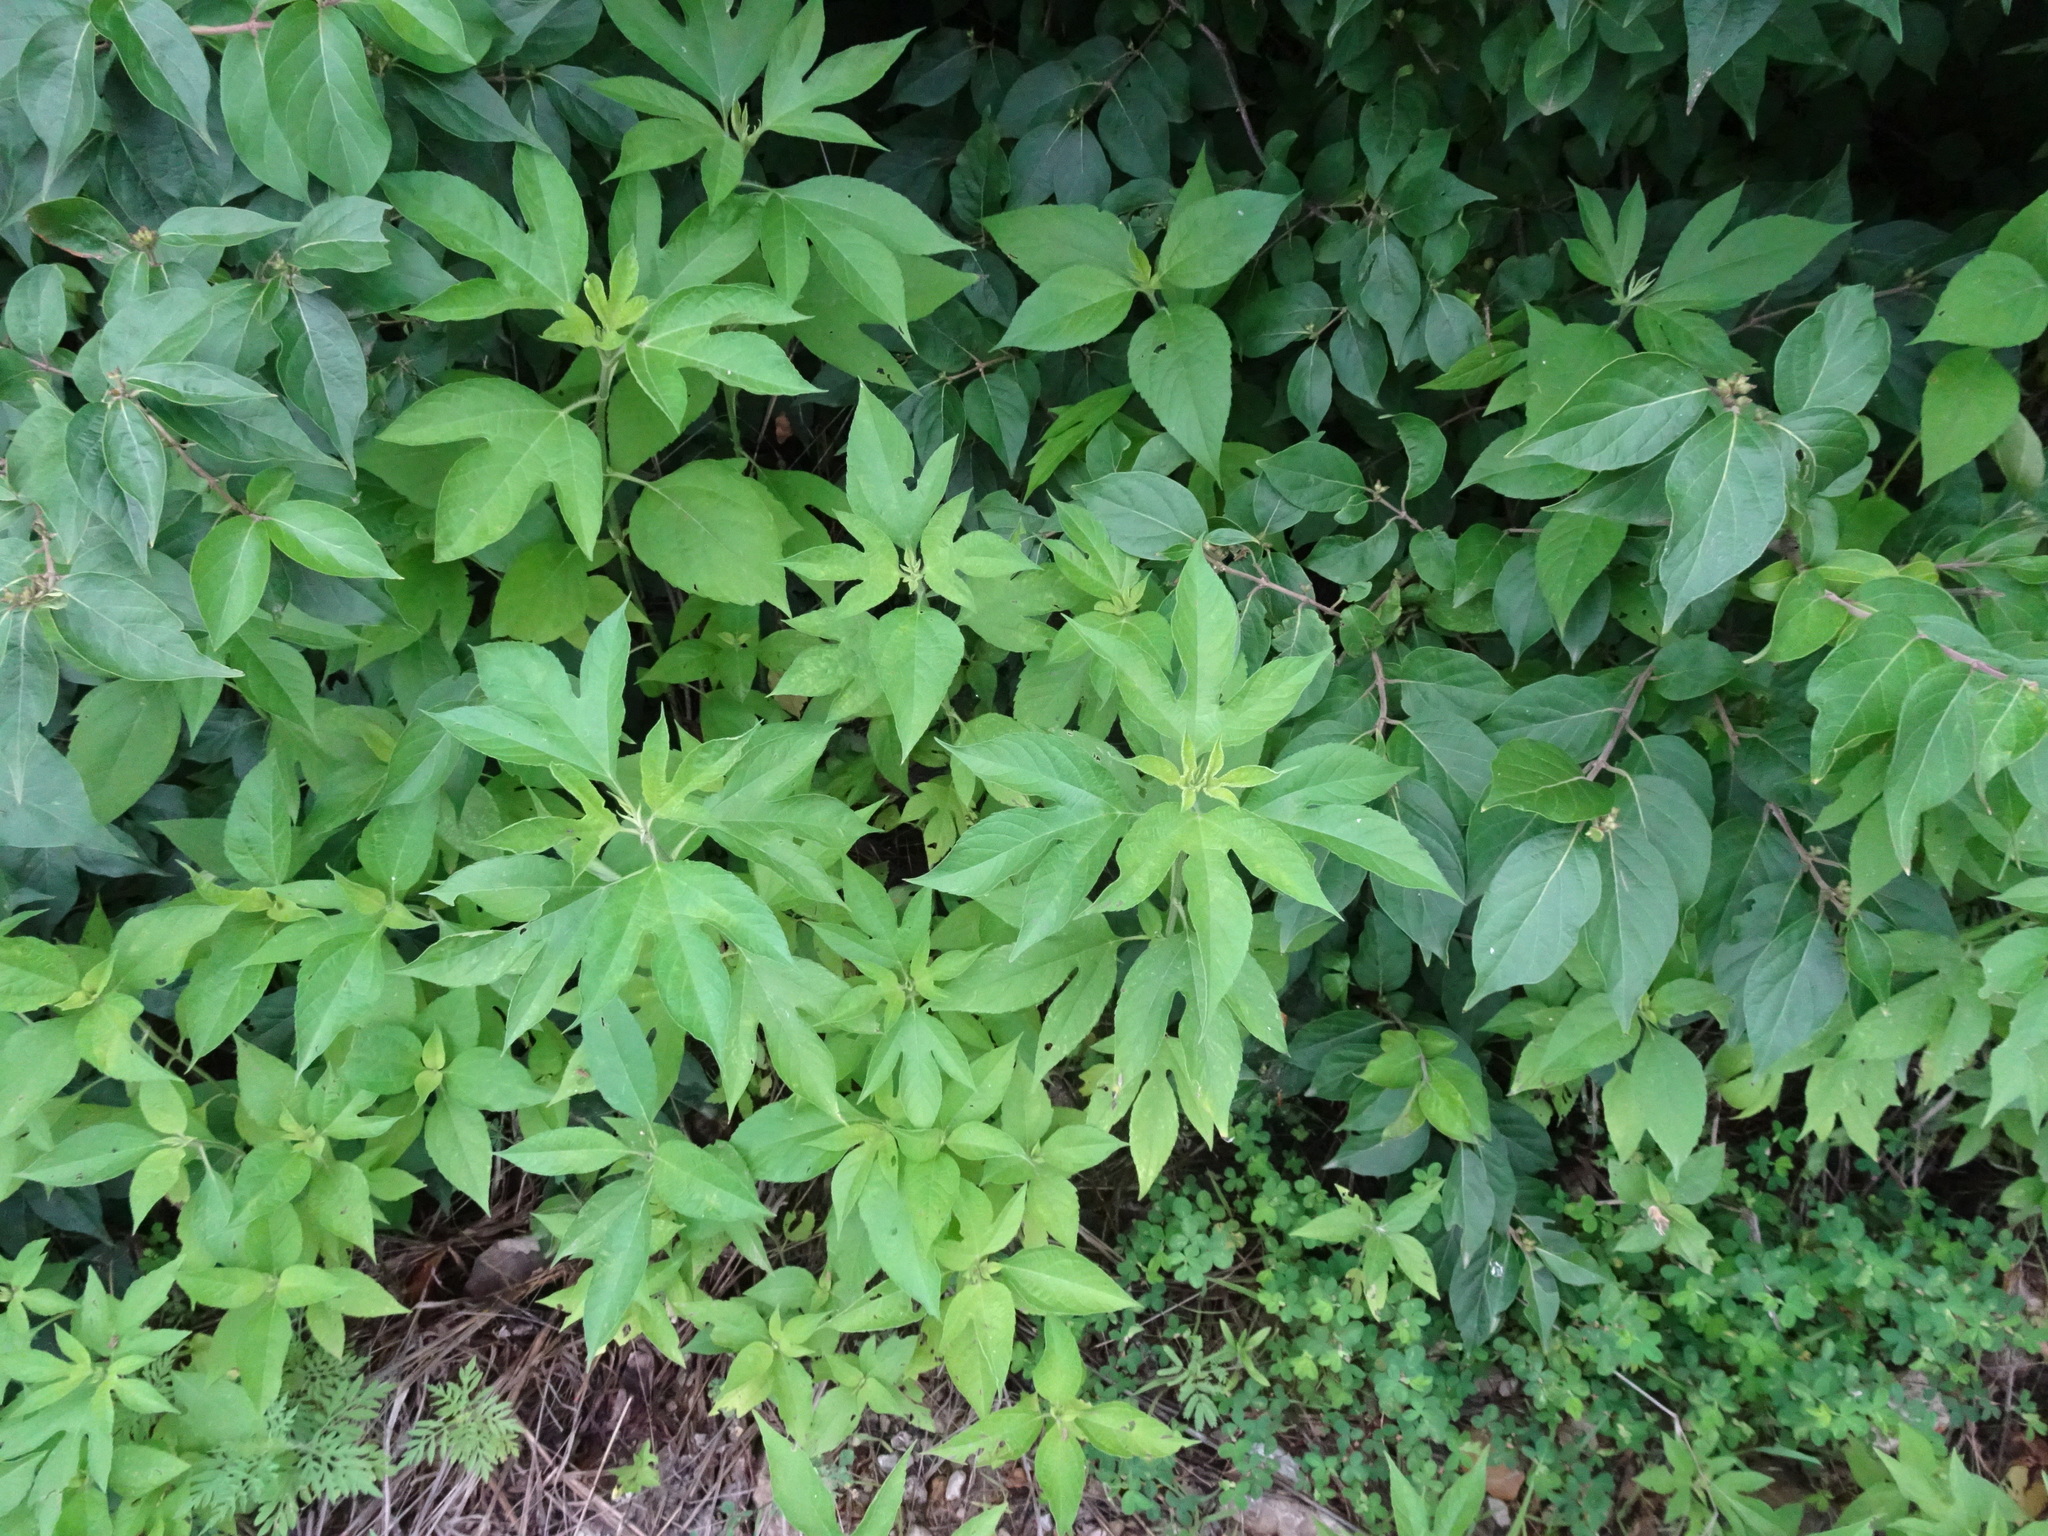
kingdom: Plantae
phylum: Tracheophyta
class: Magnoliopsida
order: Asterales
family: Asteraceae
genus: Ambrosia
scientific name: Ambrosia trifida
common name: Giant ragweed
